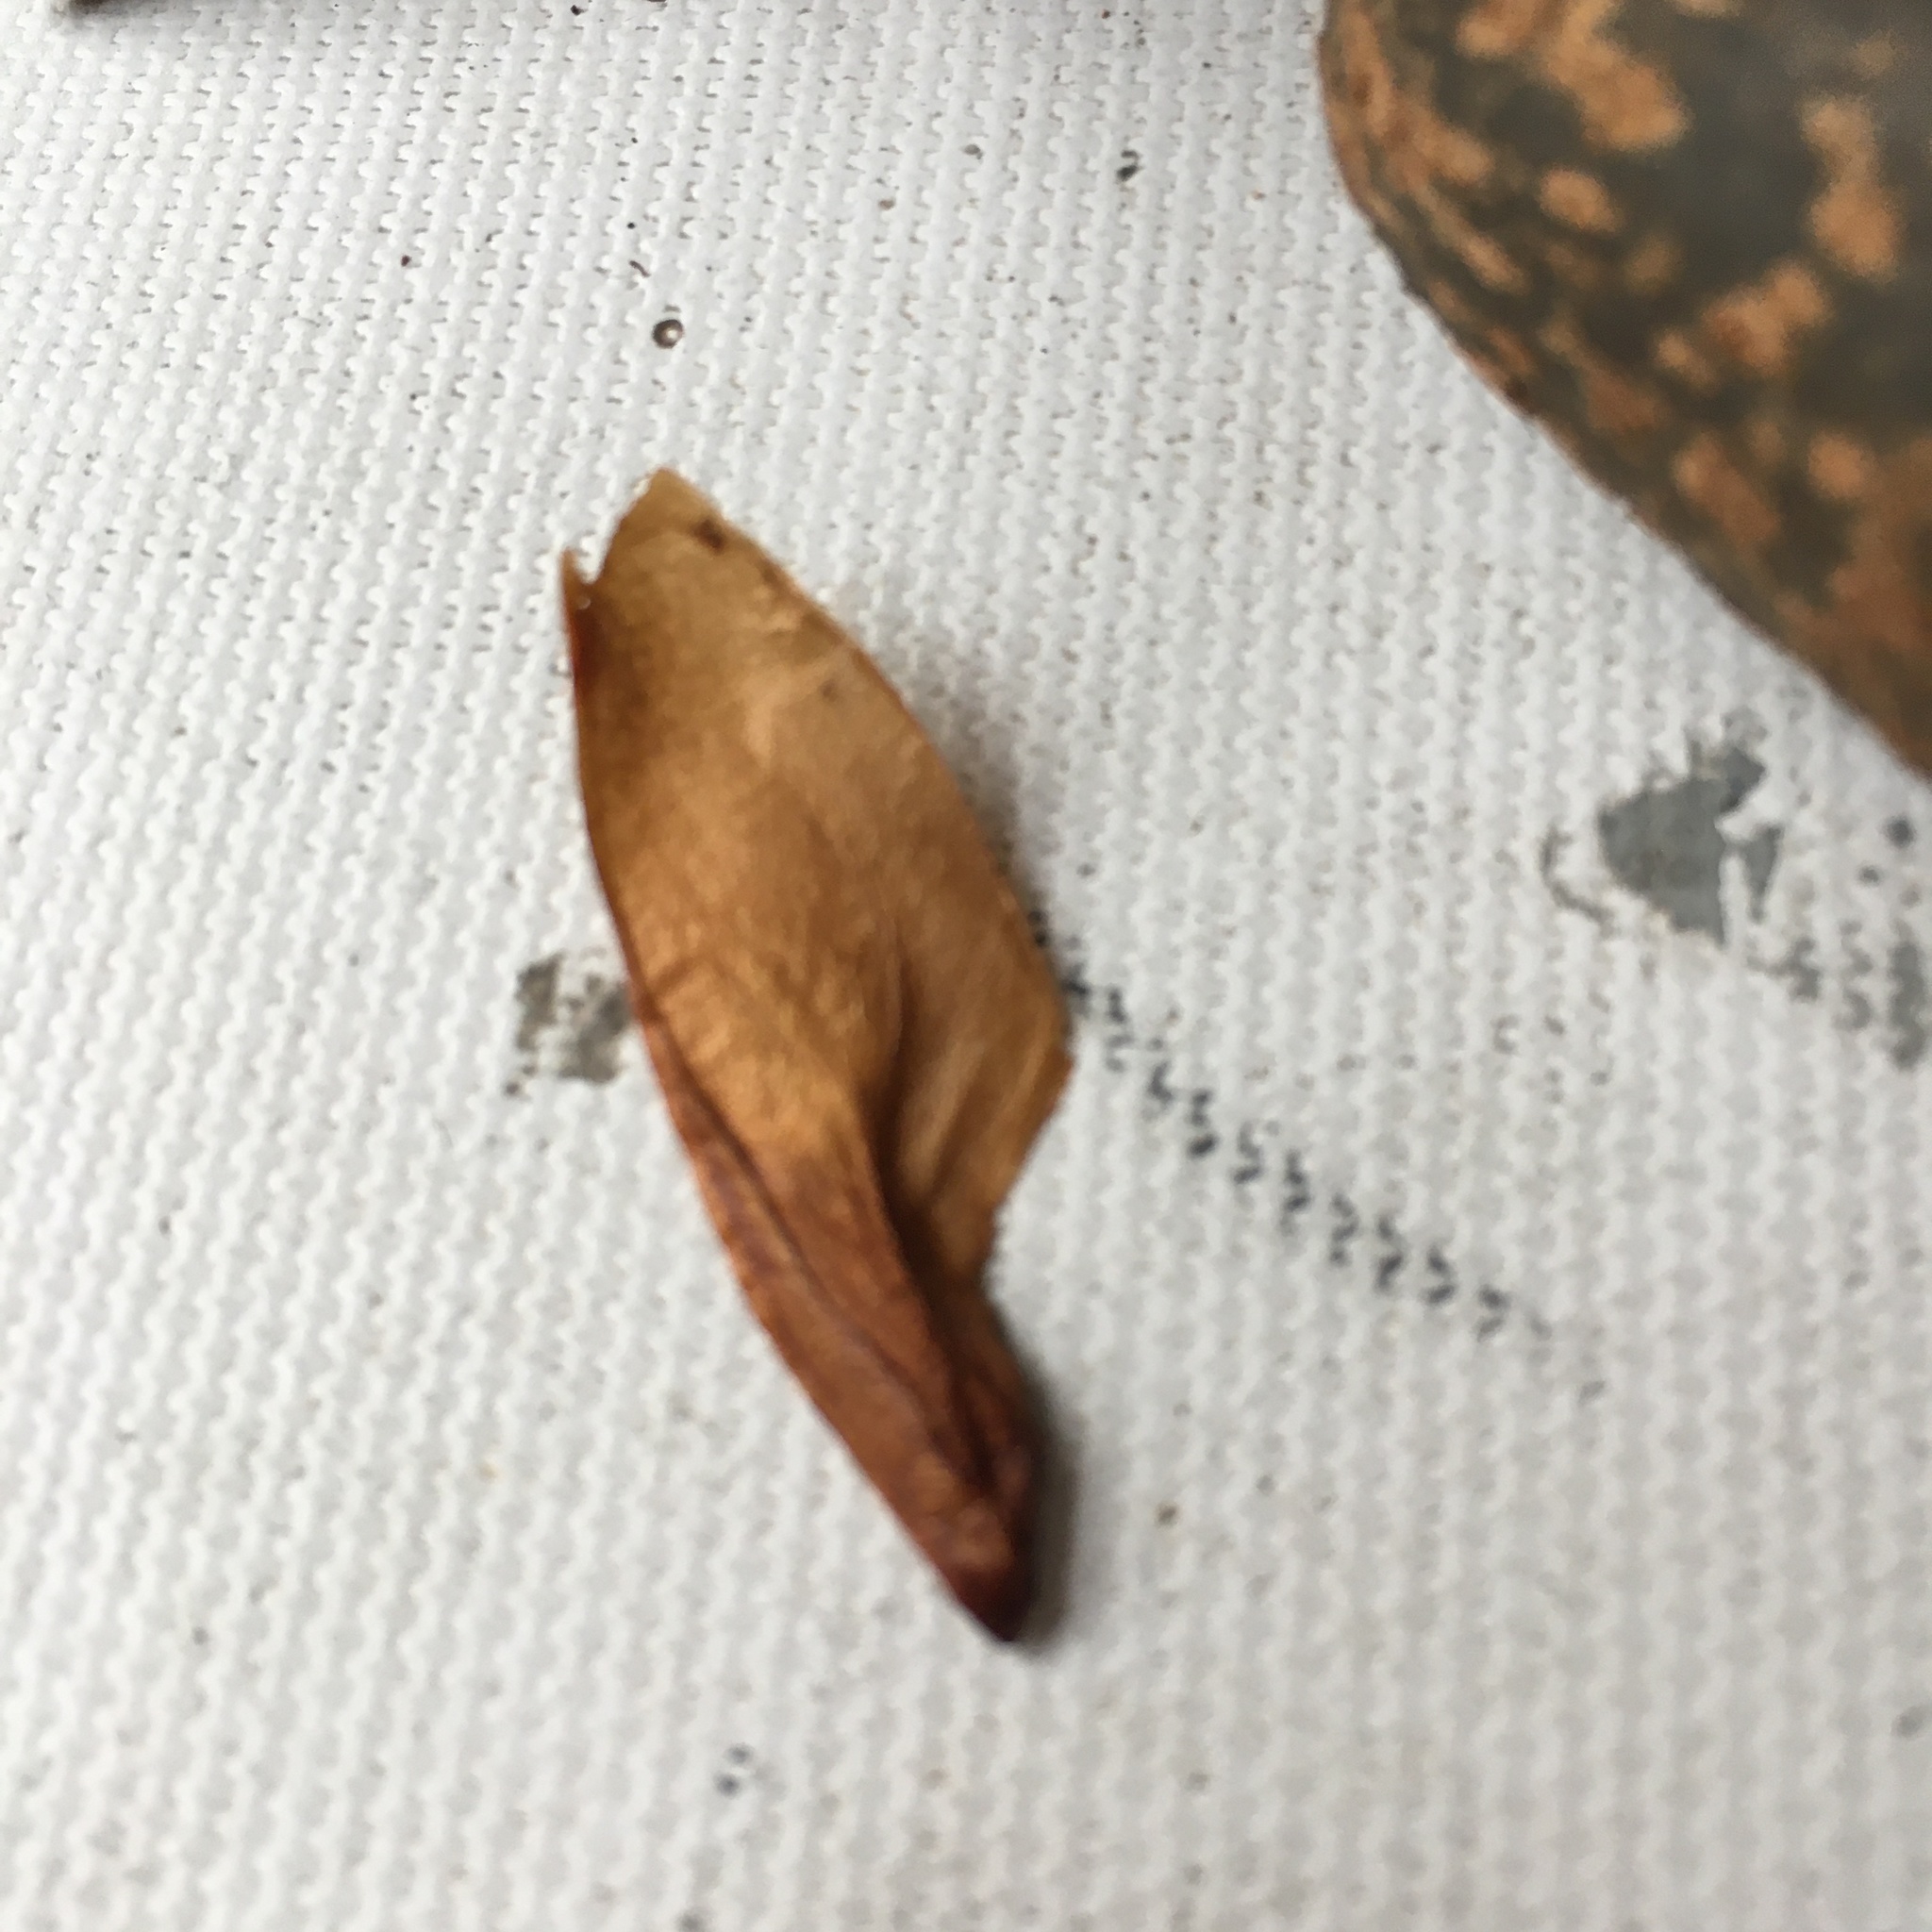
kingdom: Plantae
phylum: Tracheophyta
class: Magnoliopsida
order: Sapindales
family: Meliaceae
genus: Cedrela
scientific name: Cedrela montana
